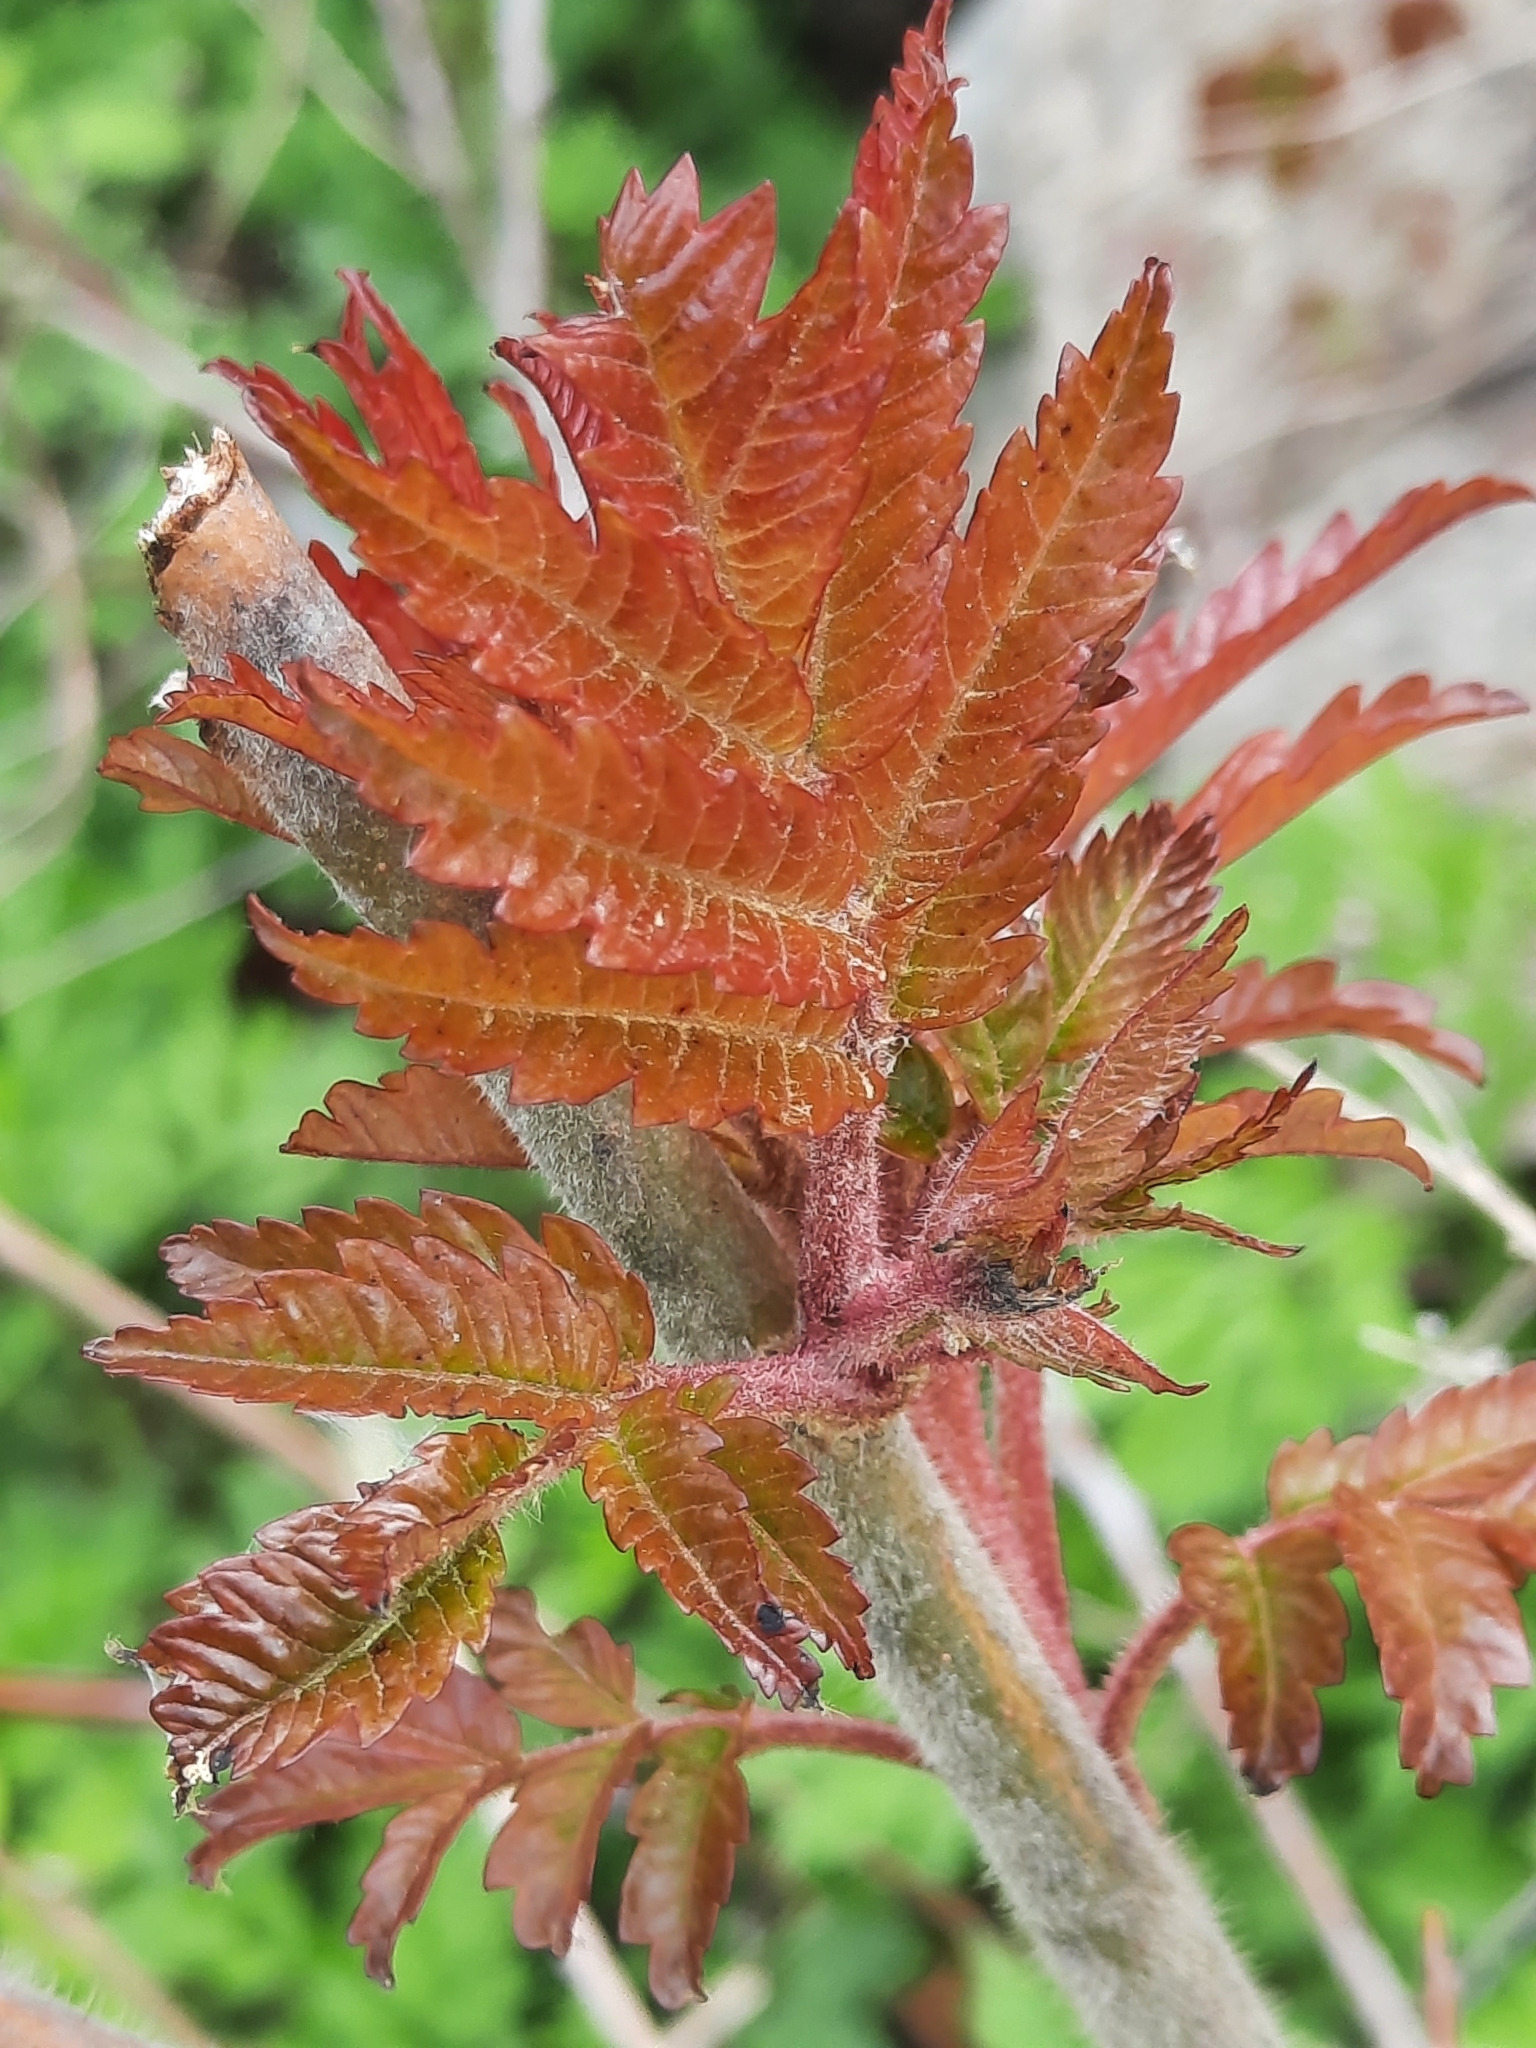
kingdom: Plantae
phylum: Tracheophyta
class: Magnoliopsida
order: Sapindales
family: Anacardiaceae
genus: Rhus
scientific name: Rhus typhina
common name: Staghorn sumac
